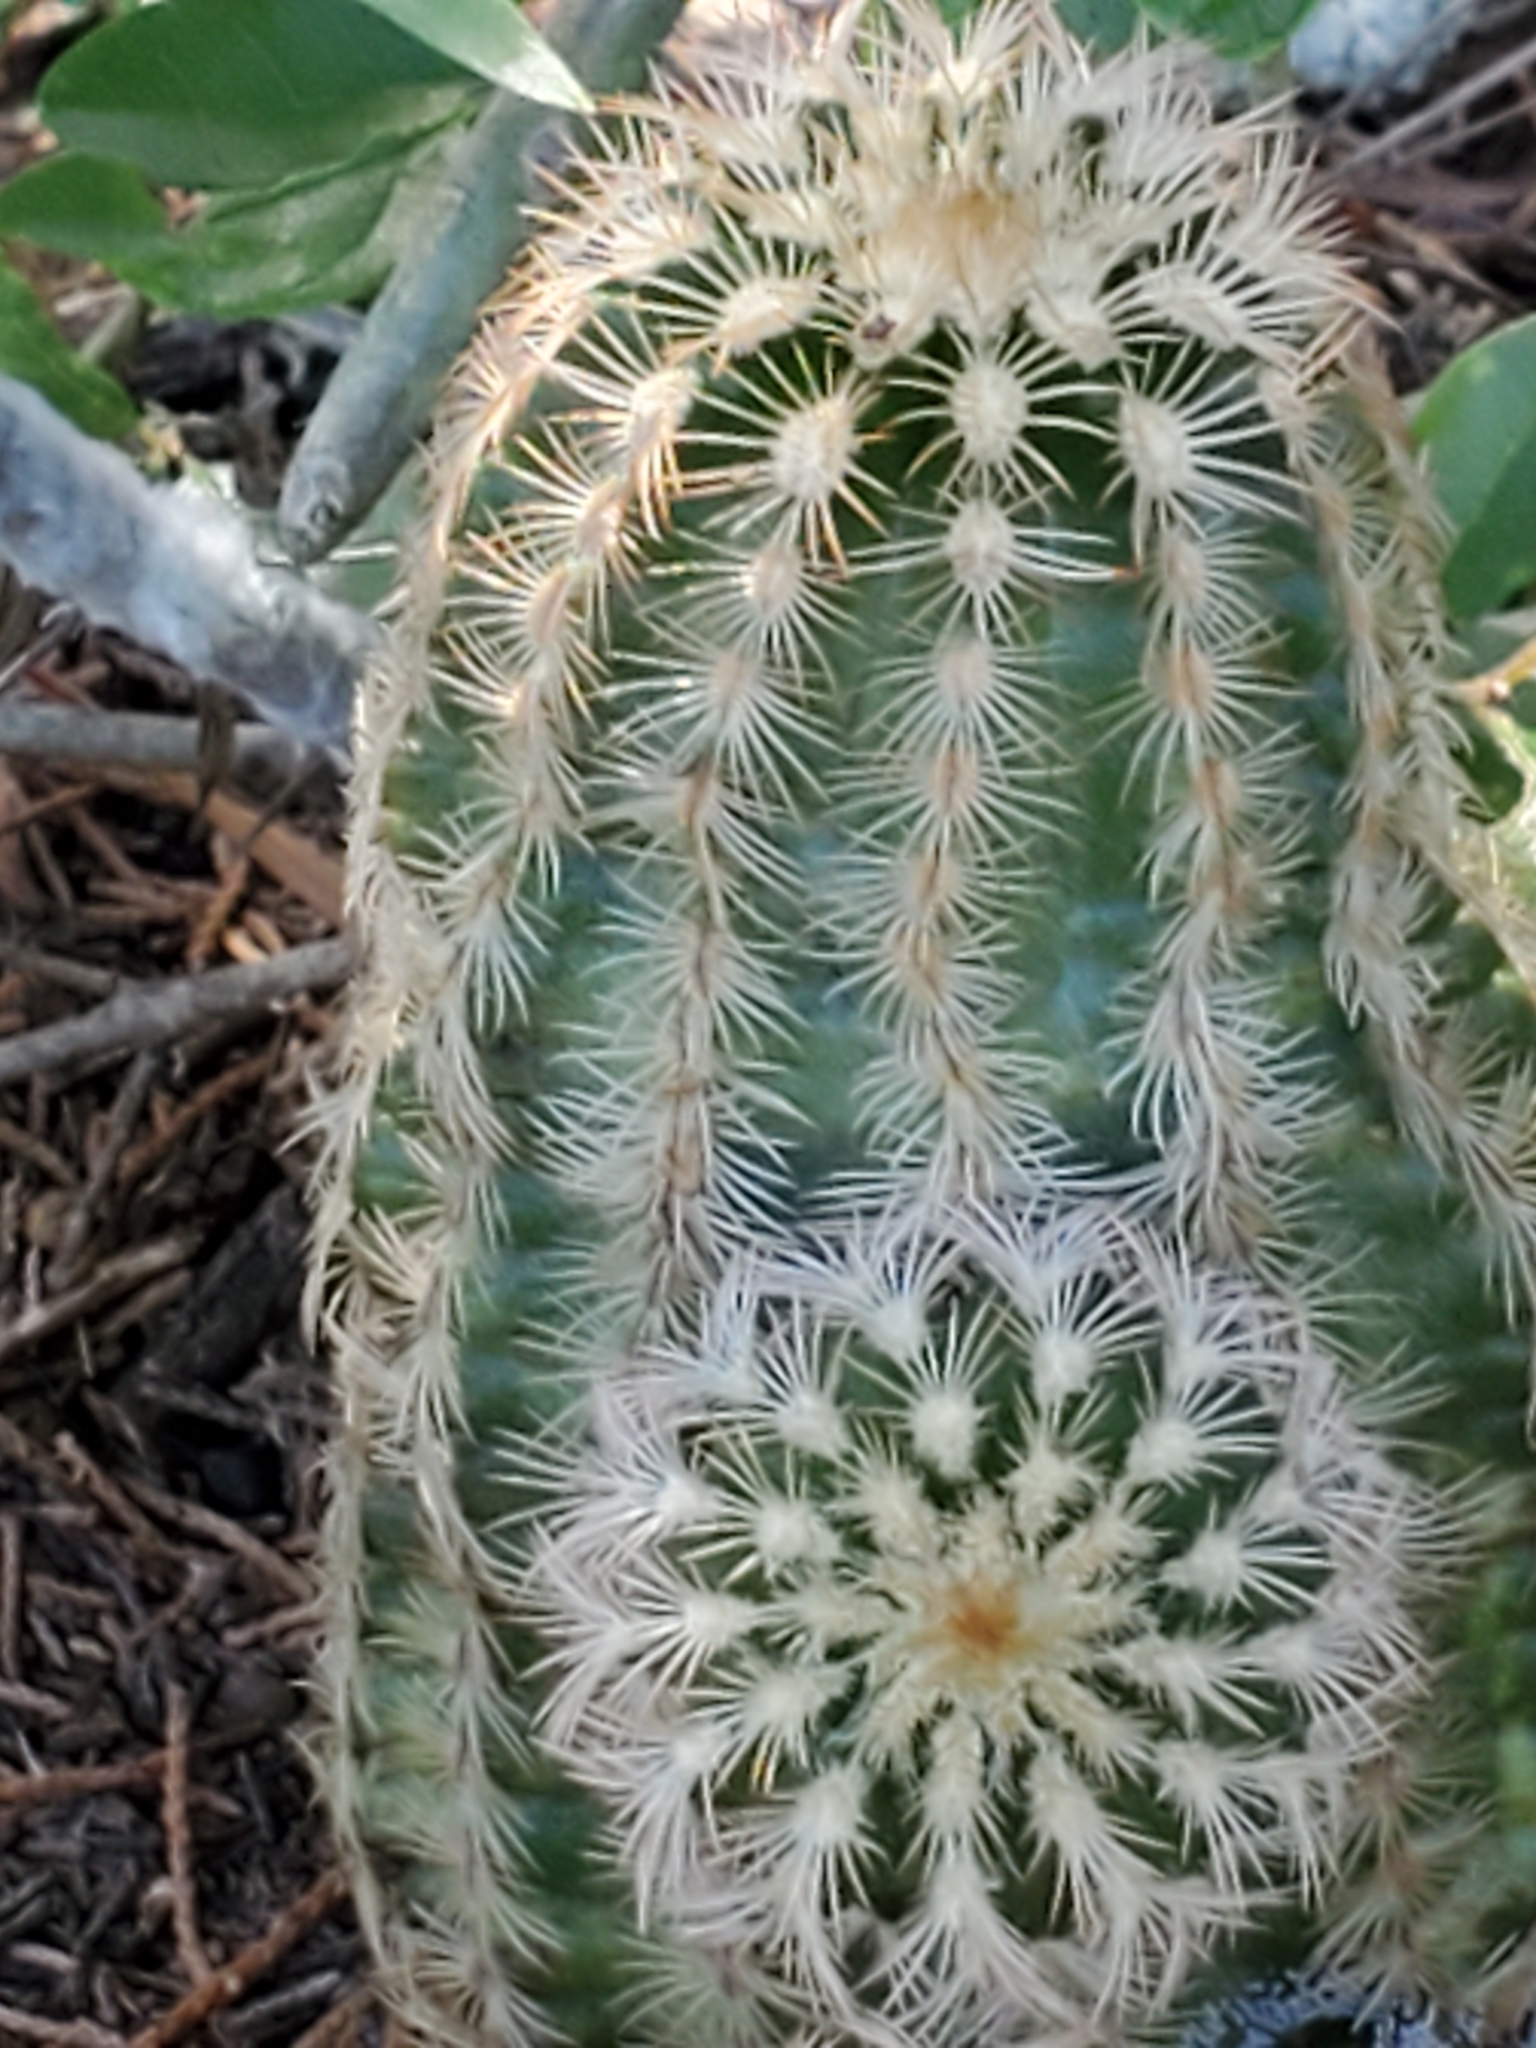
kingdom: Plantae
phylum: Tracheophyta
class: Magnoliopsida
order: Caryophyllales
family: Cactaceae
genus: Echinocereus
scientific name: Echinocereus reichenbachii
